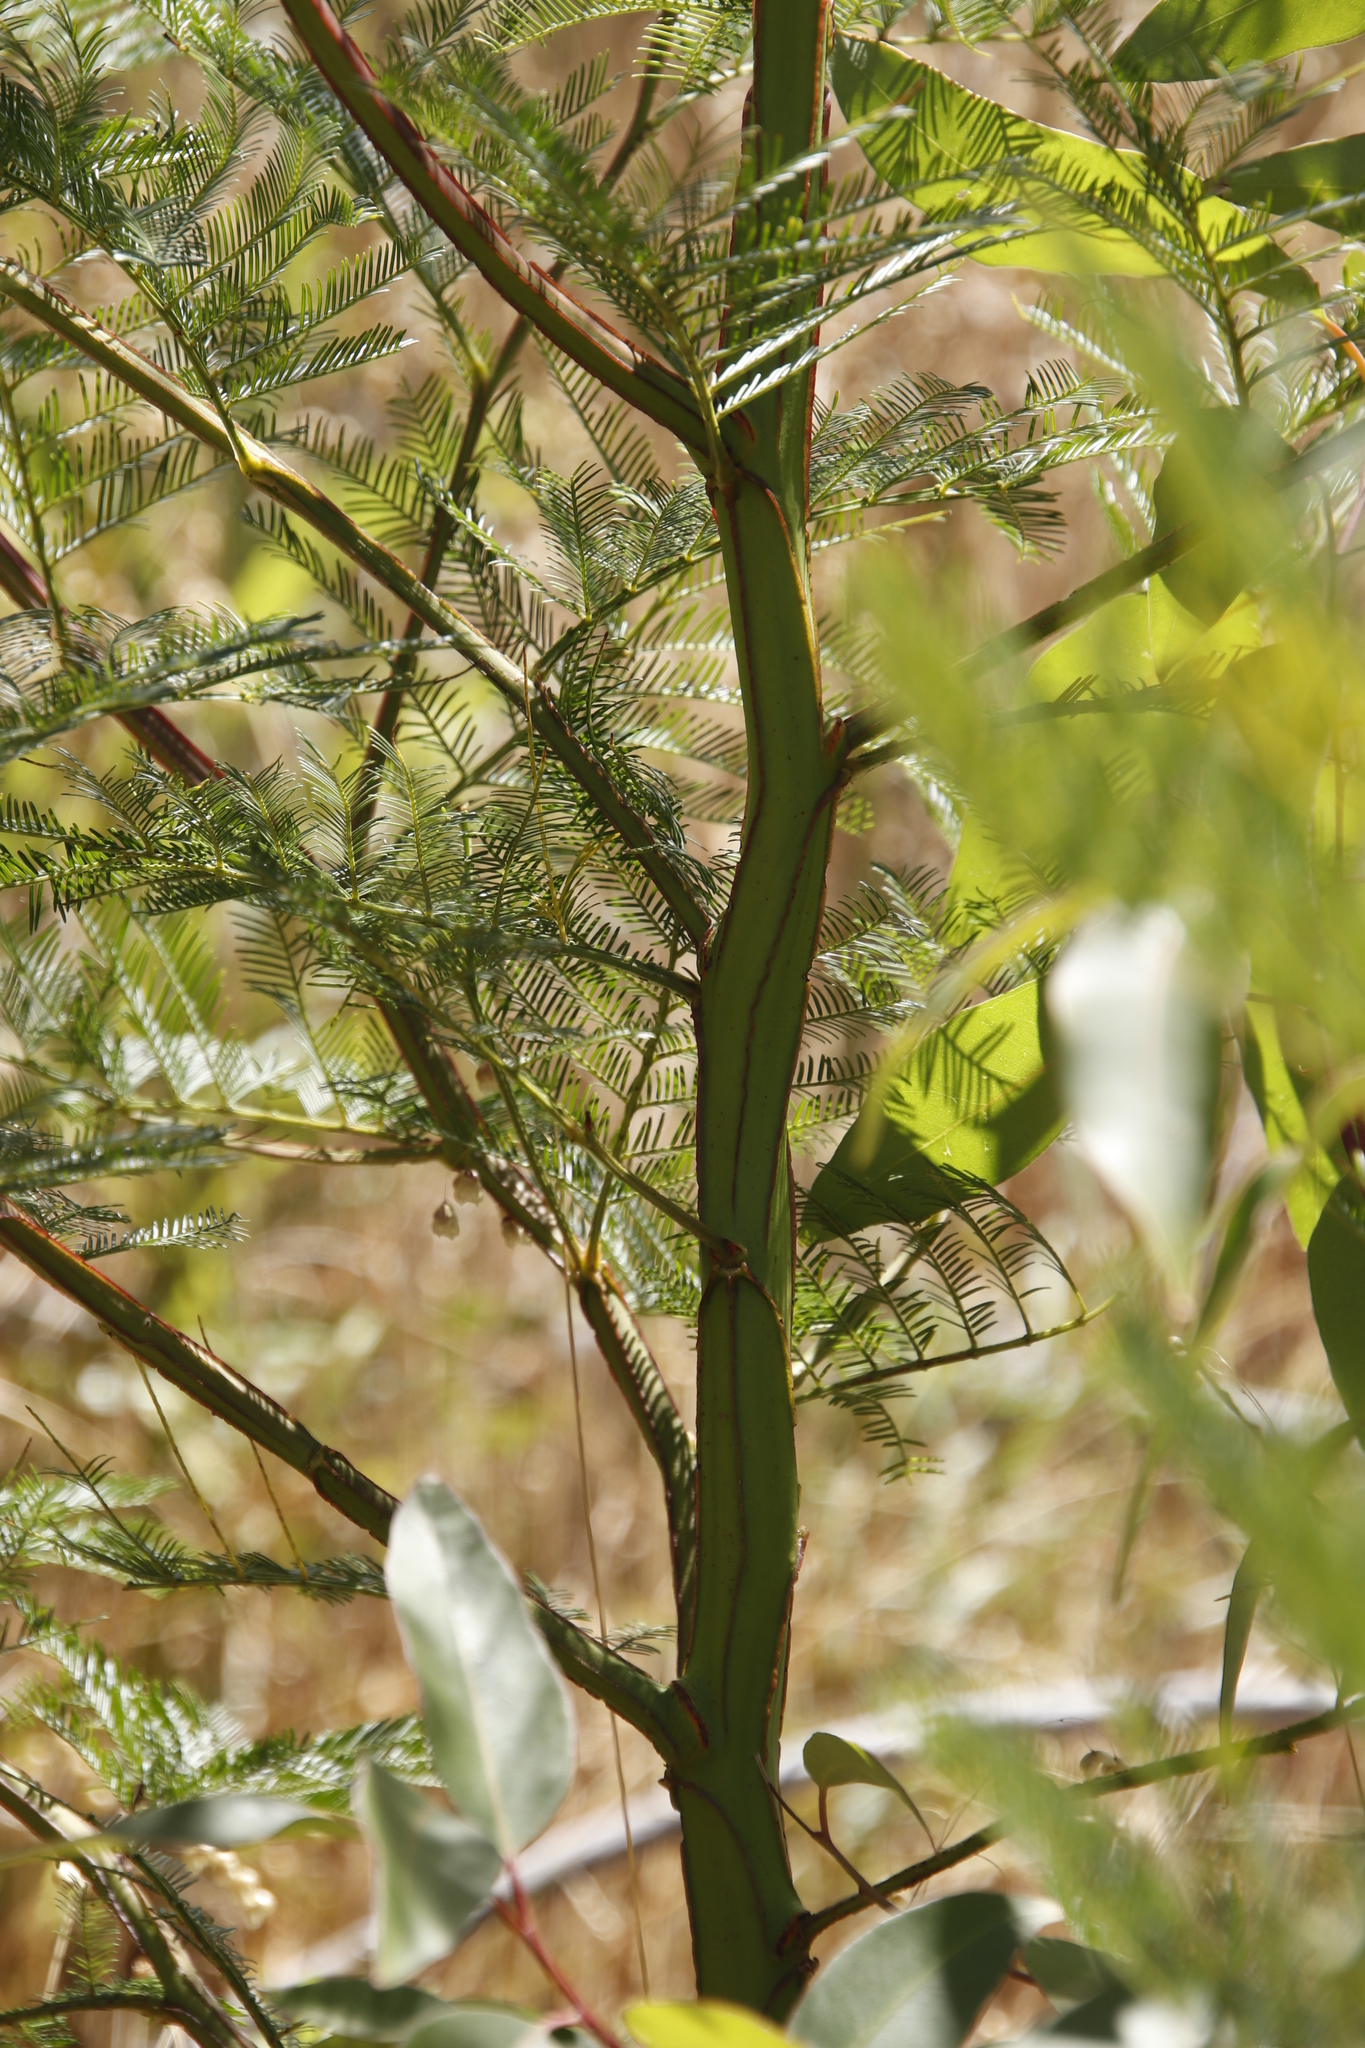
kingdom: Plantae
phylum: Tracheophyta
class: Magnoliopsida
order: Fabales
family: Fabaceae
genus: Acacia
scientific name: Acacia decurrens
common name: Green wattle
